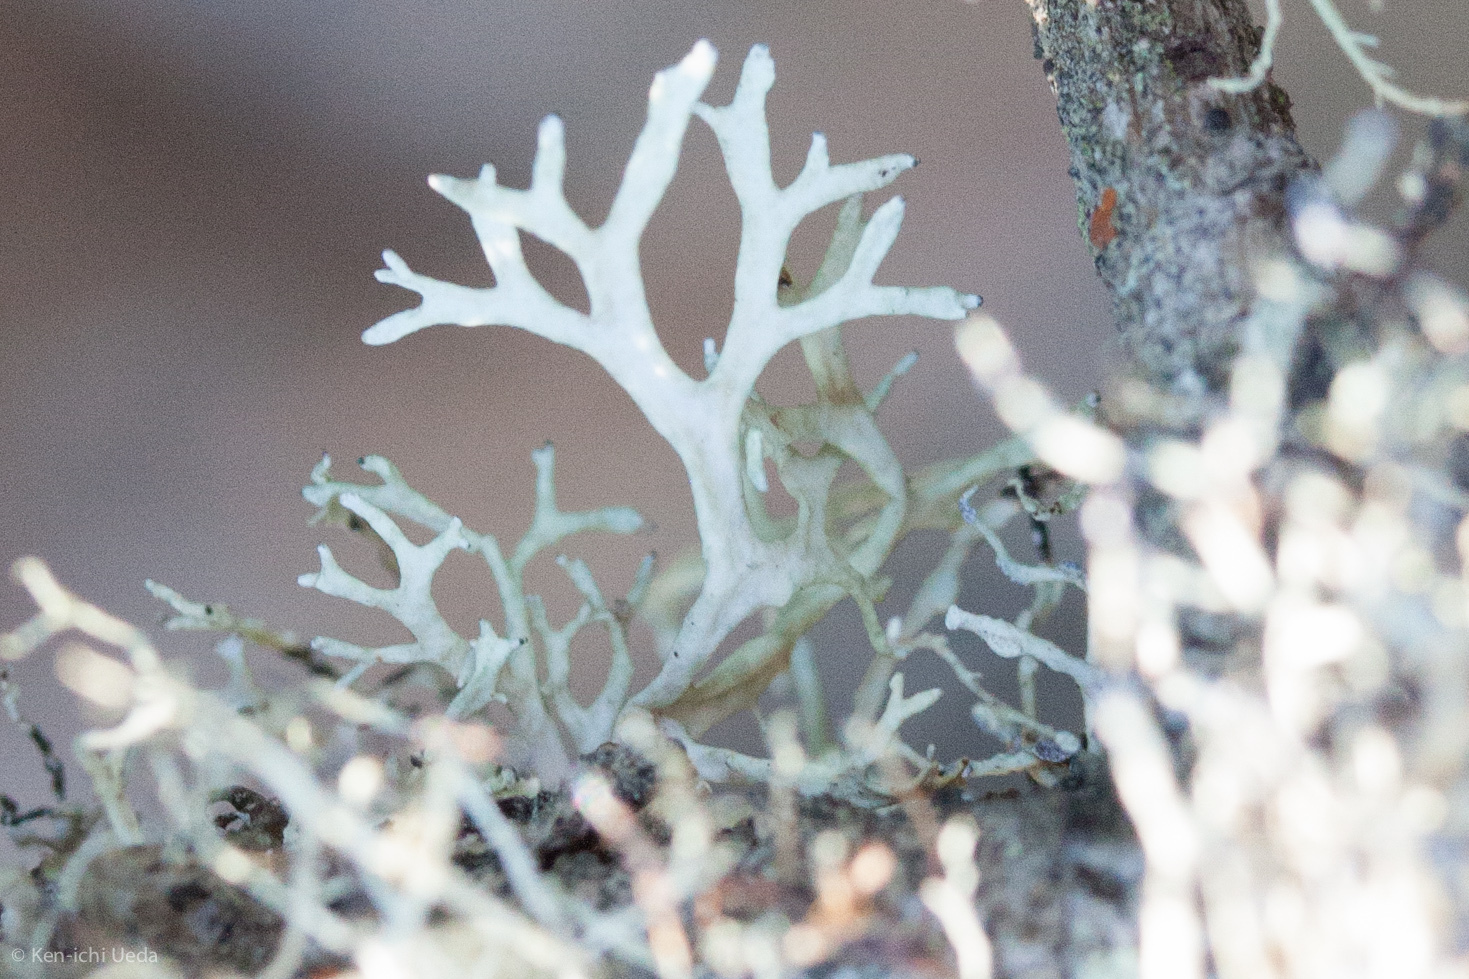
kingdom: Fungi
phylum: Ascomycota
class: Lecanoromycetes
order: Lecanorales
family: Parmeliaceae
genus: Evernia
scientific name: Evernia prunastri
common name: Oak moss
